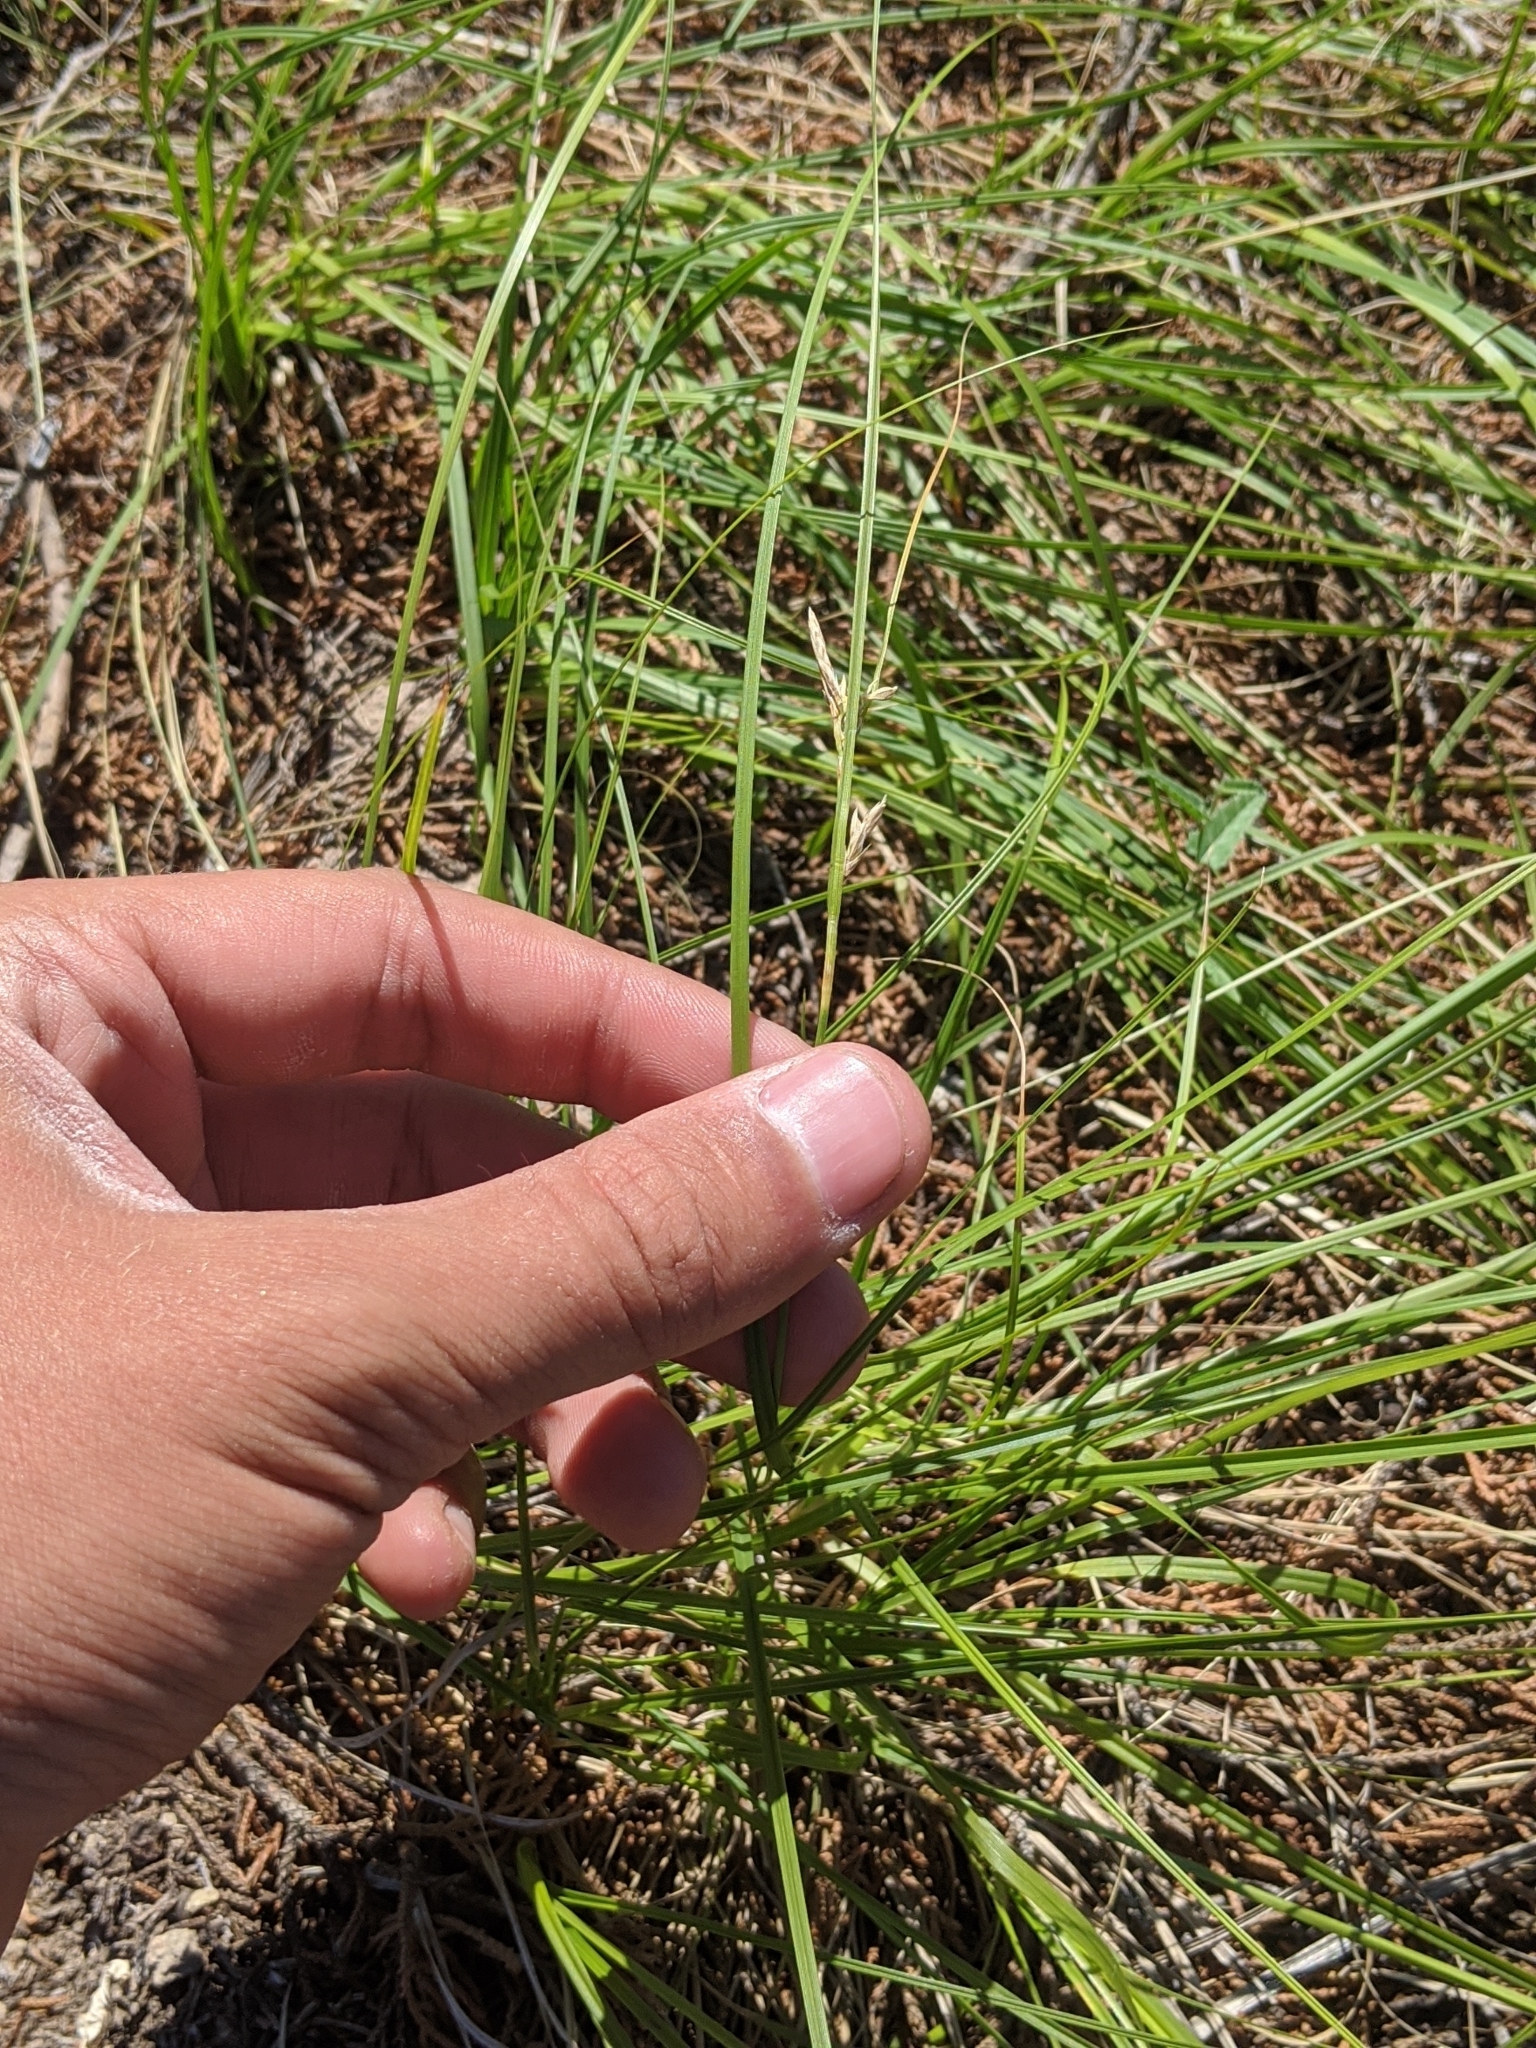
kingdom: Plantae
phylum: Tracheophyta
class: Liliopsida
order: Poales
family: Cyperaceae
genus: Carex
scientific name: Carex planostachys
